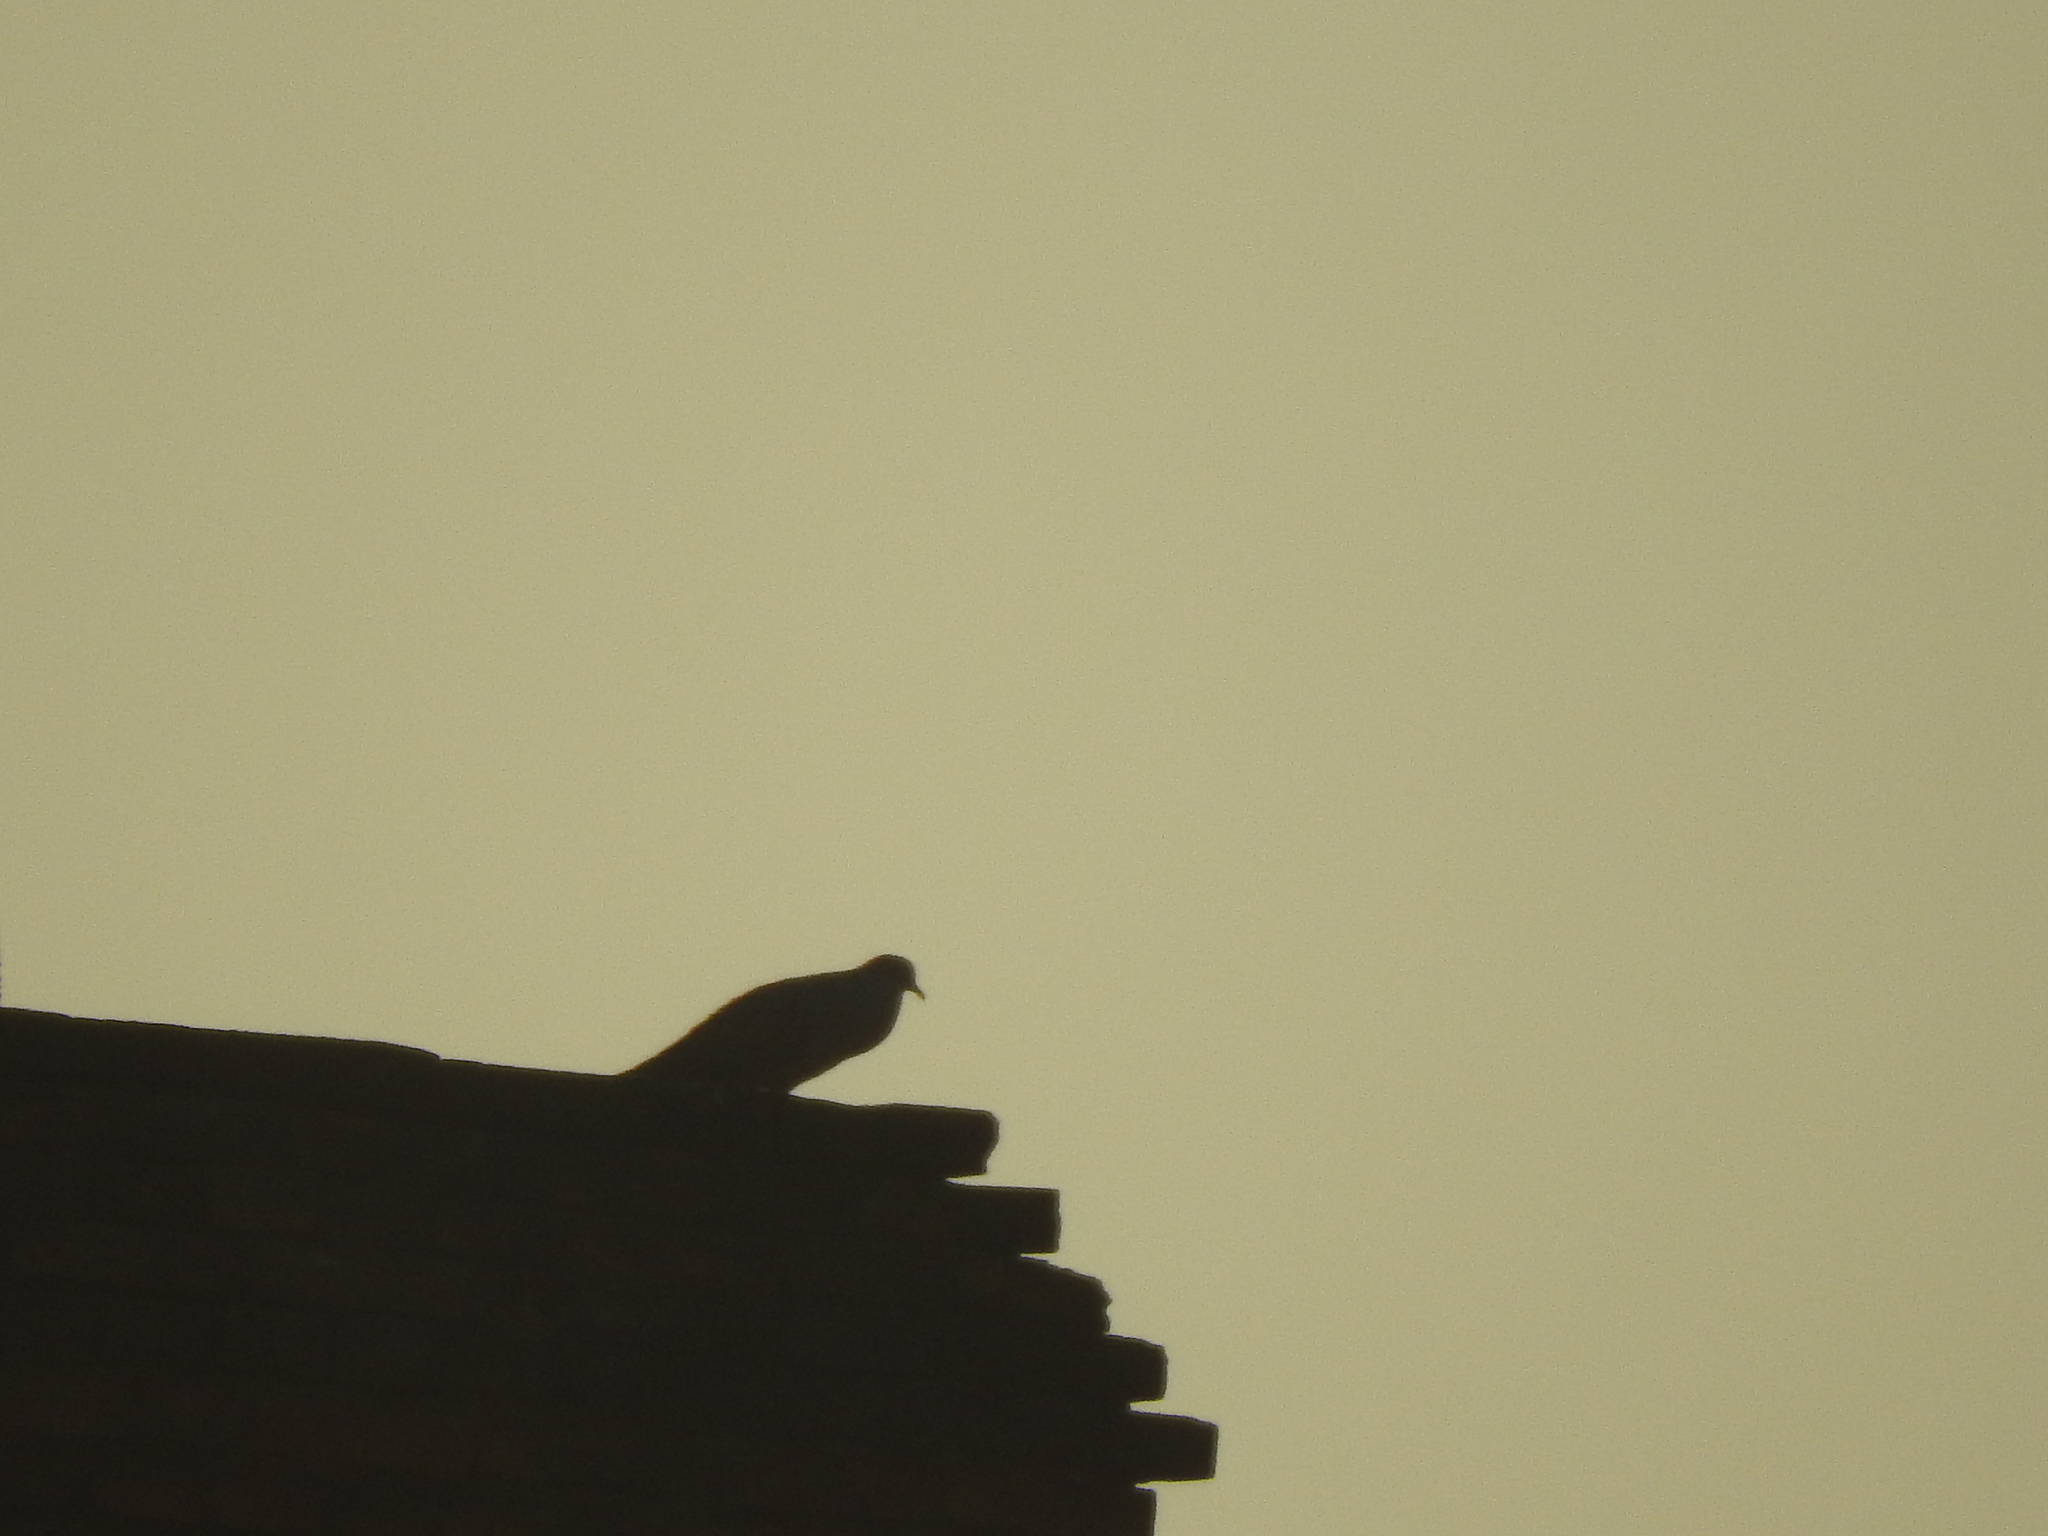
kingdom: Animalia
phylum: Chordata
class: Aves
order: Columbiformes
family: Columbidae
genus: Streptopelia
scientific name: Streptopelia decaocto
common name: Eurasian collared dove
